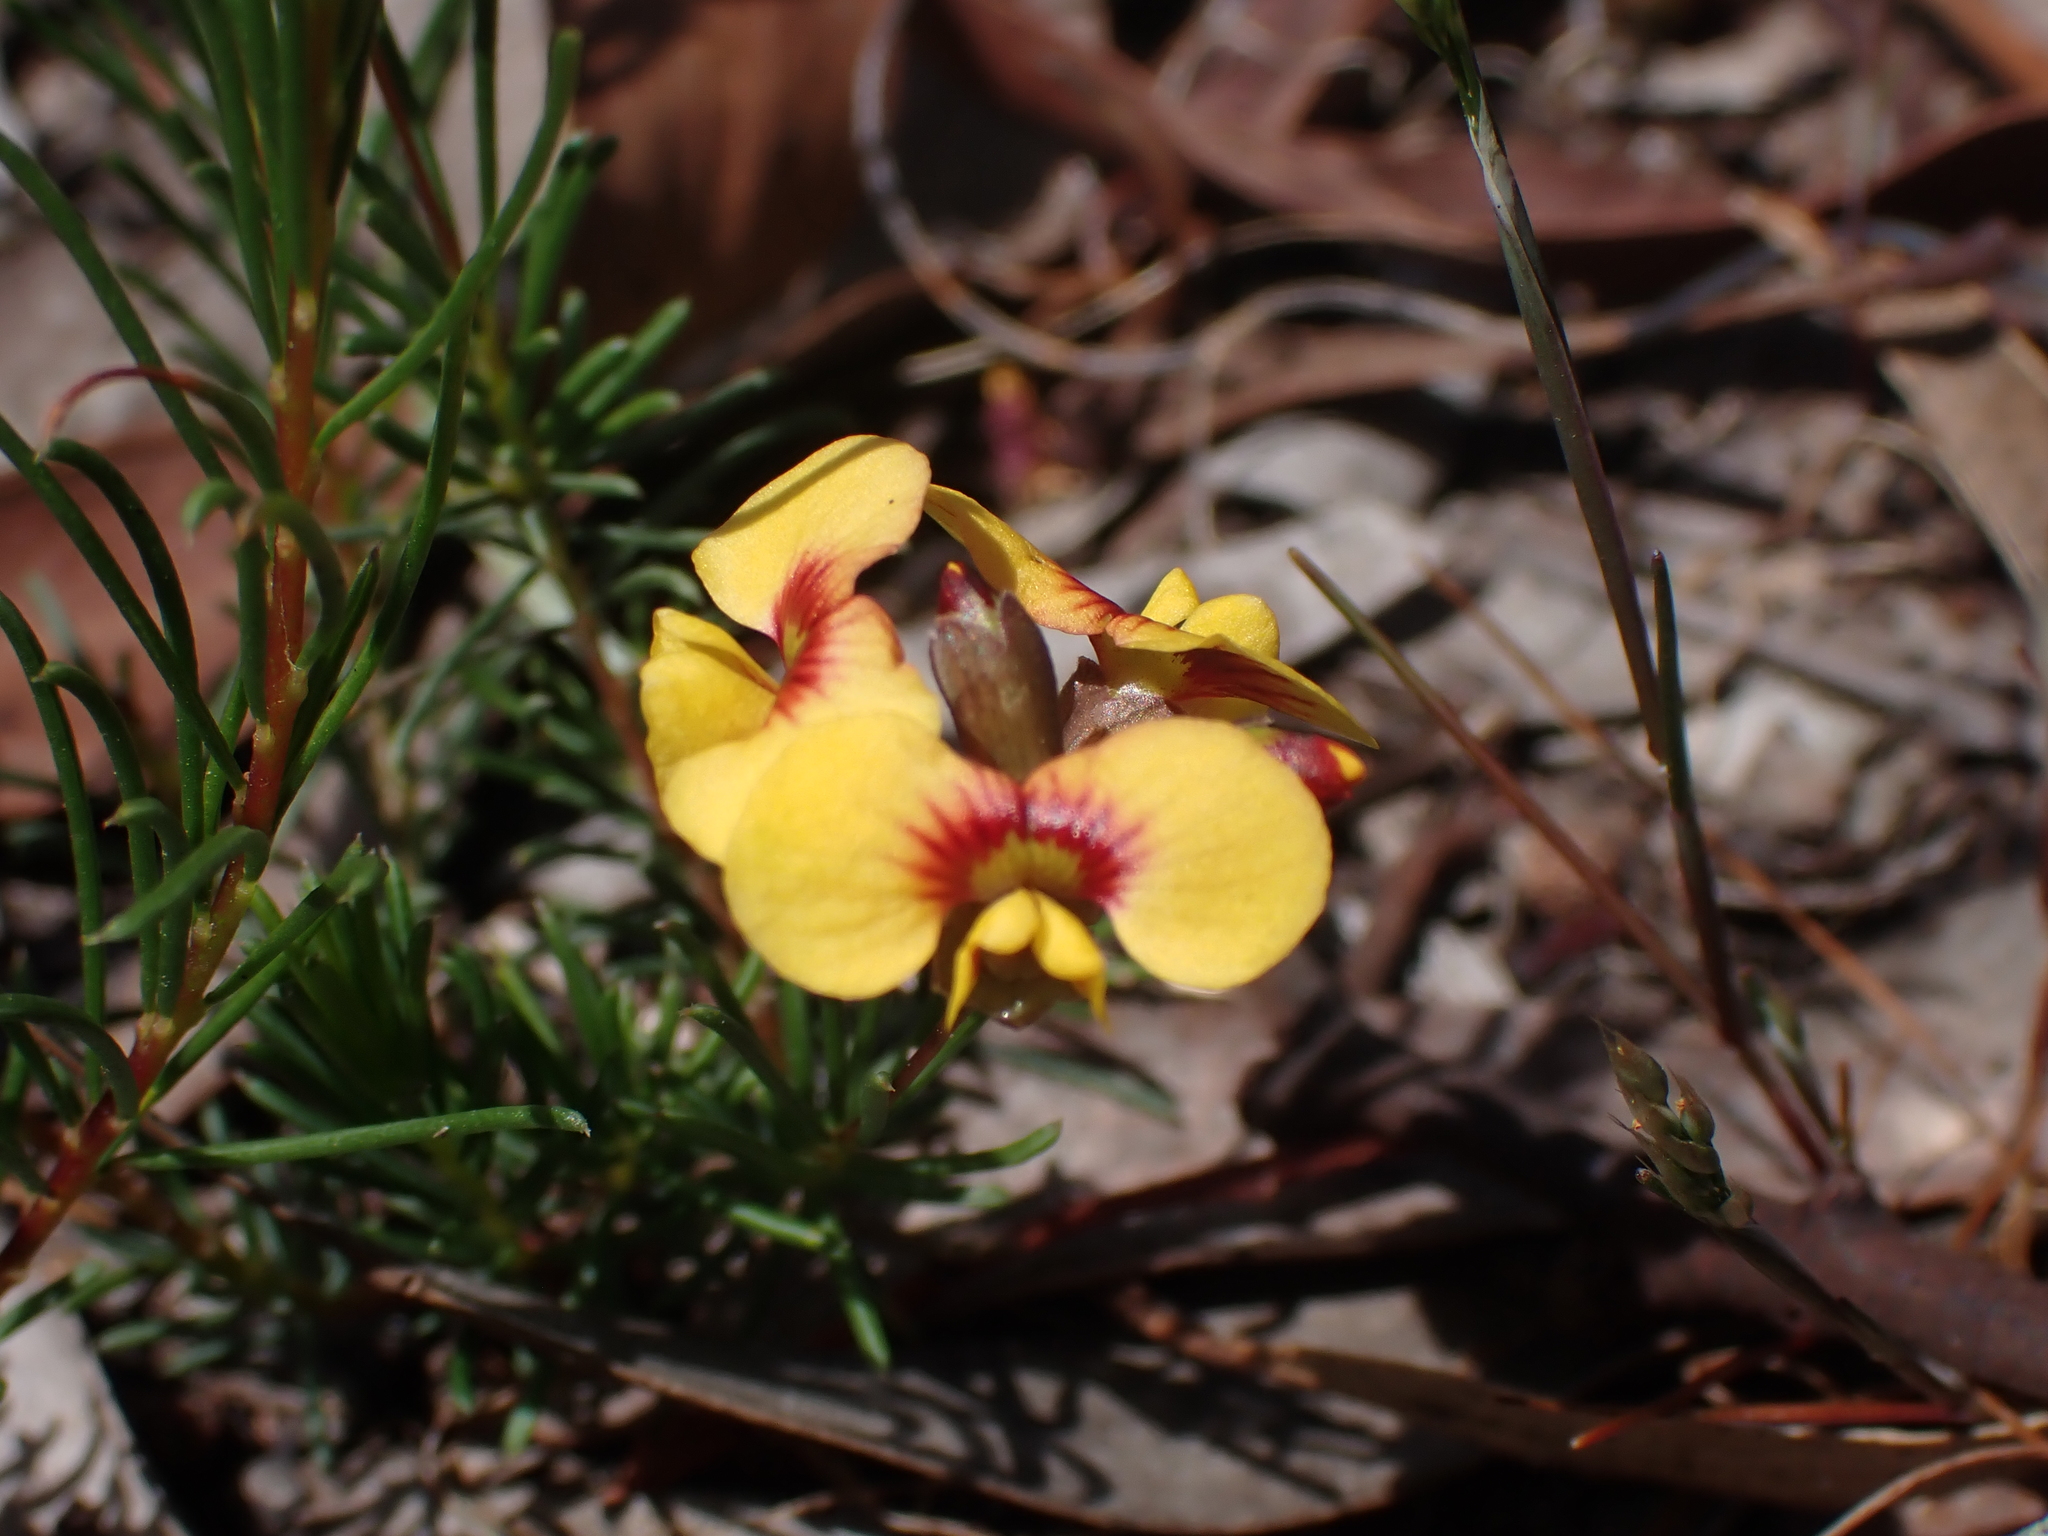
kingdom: Plantae
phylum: Tracheophyta
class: Magnoliopsida
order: Fabales
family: Fabaceae
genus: Dillwynia
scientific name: Dillwynia glaberrima
